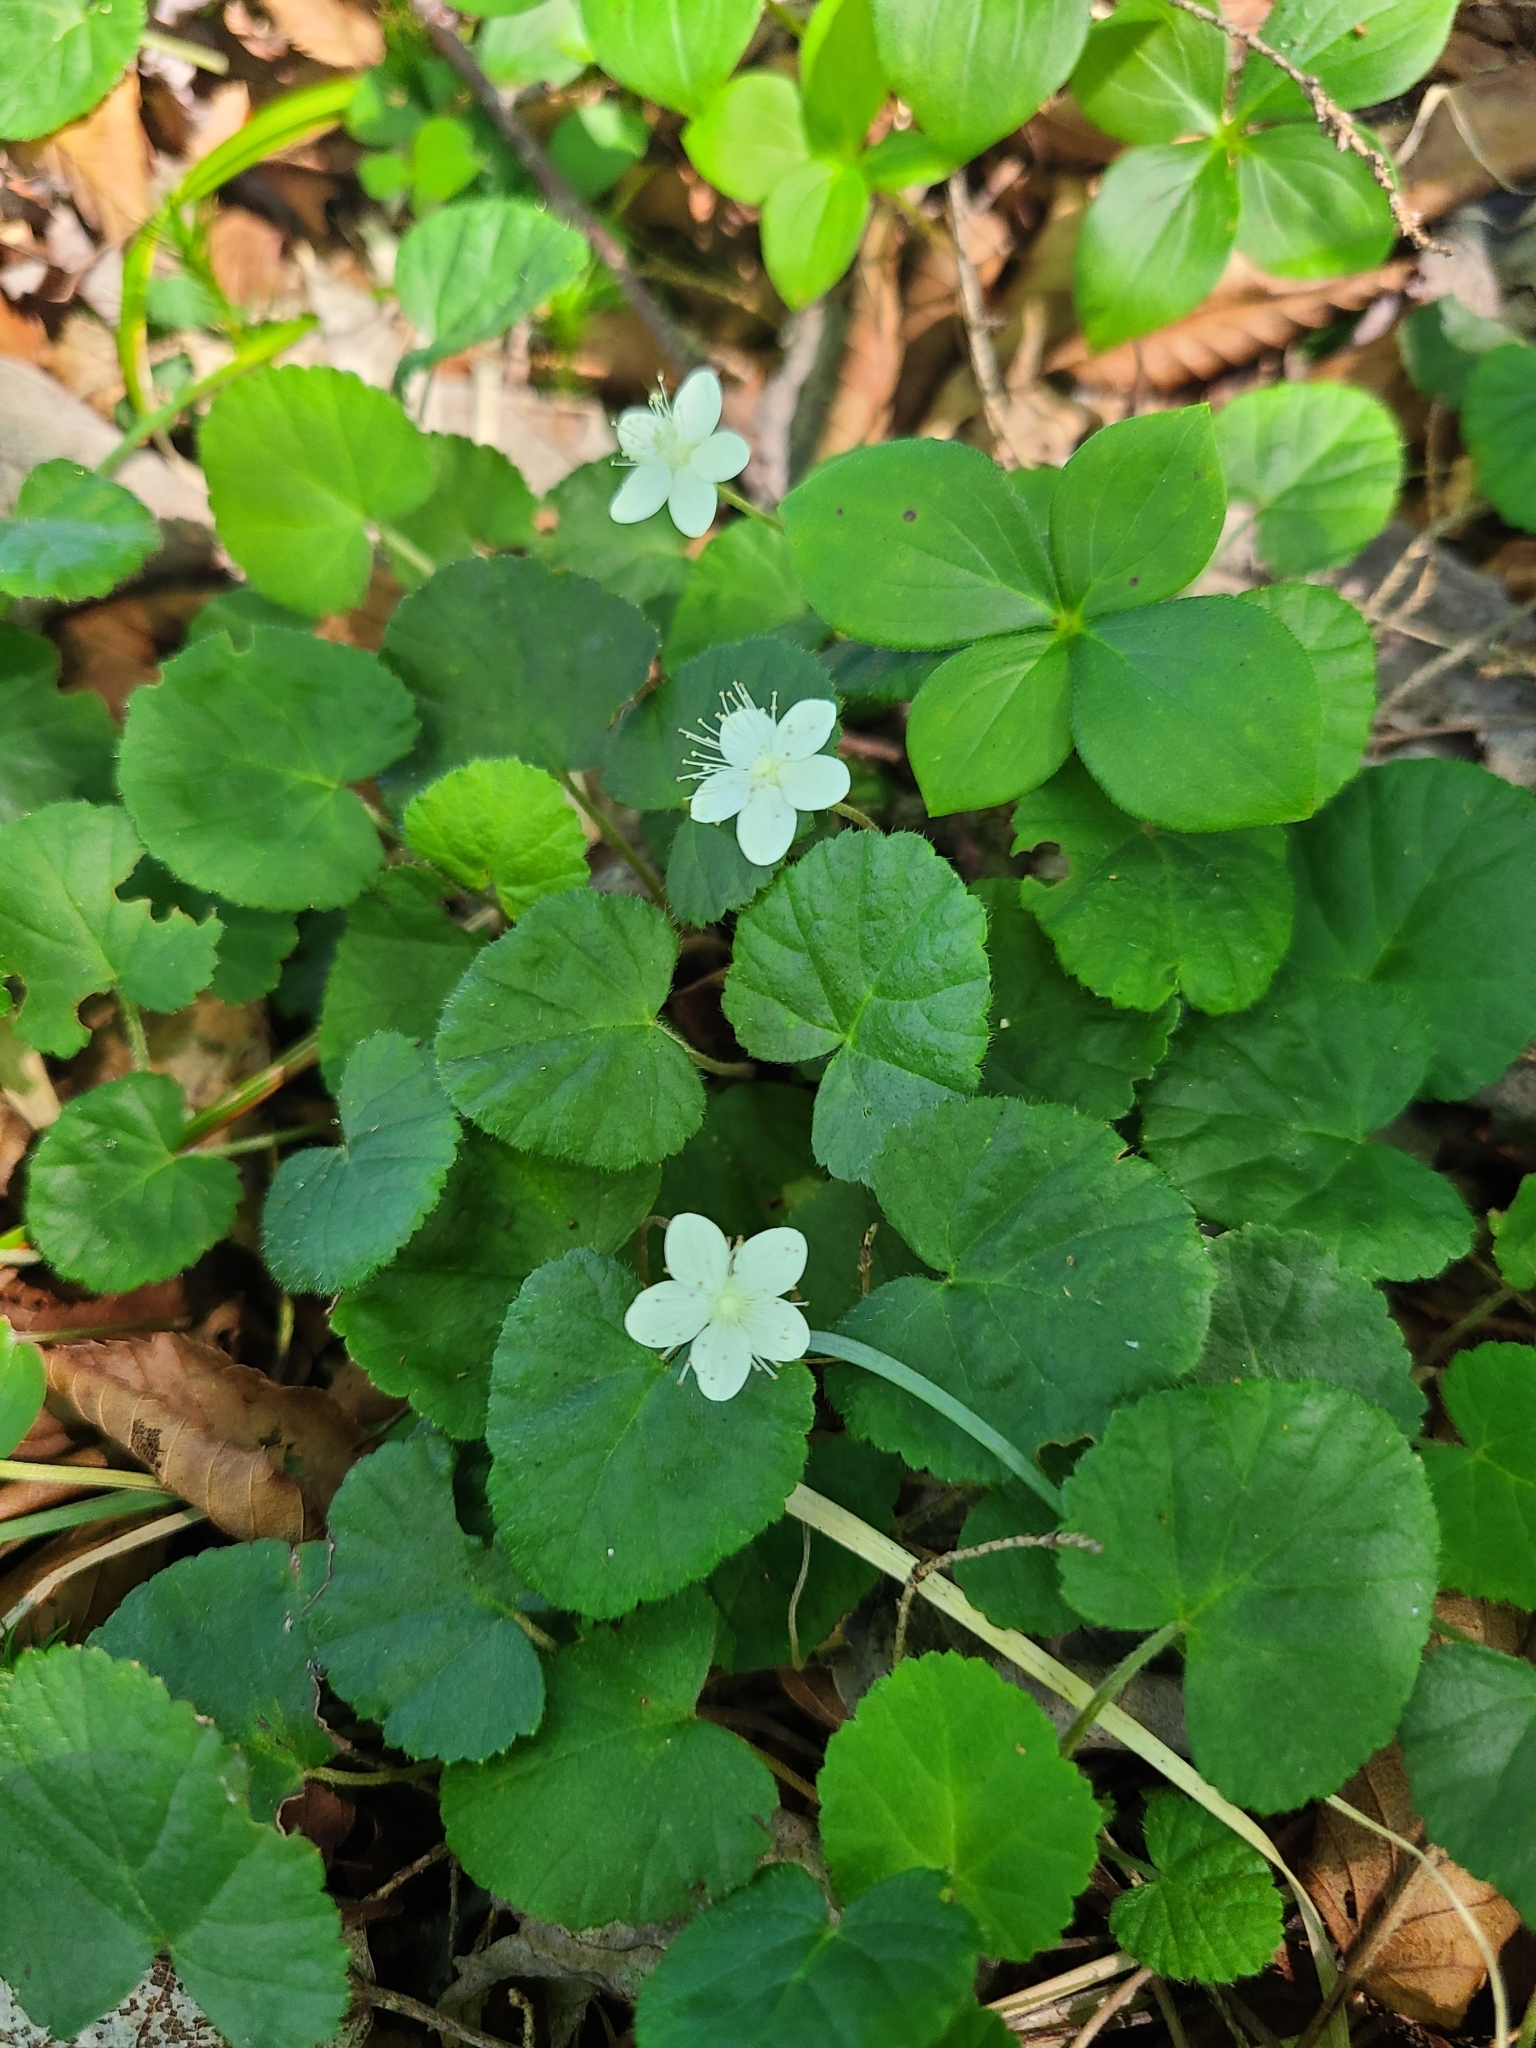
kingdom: Plantae
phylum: Tracheophyta
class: Magnoliopsida
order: Rosales
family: Rosaceae
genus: Dalibarda
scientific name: Dalibarda repens
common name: Dewdrop
